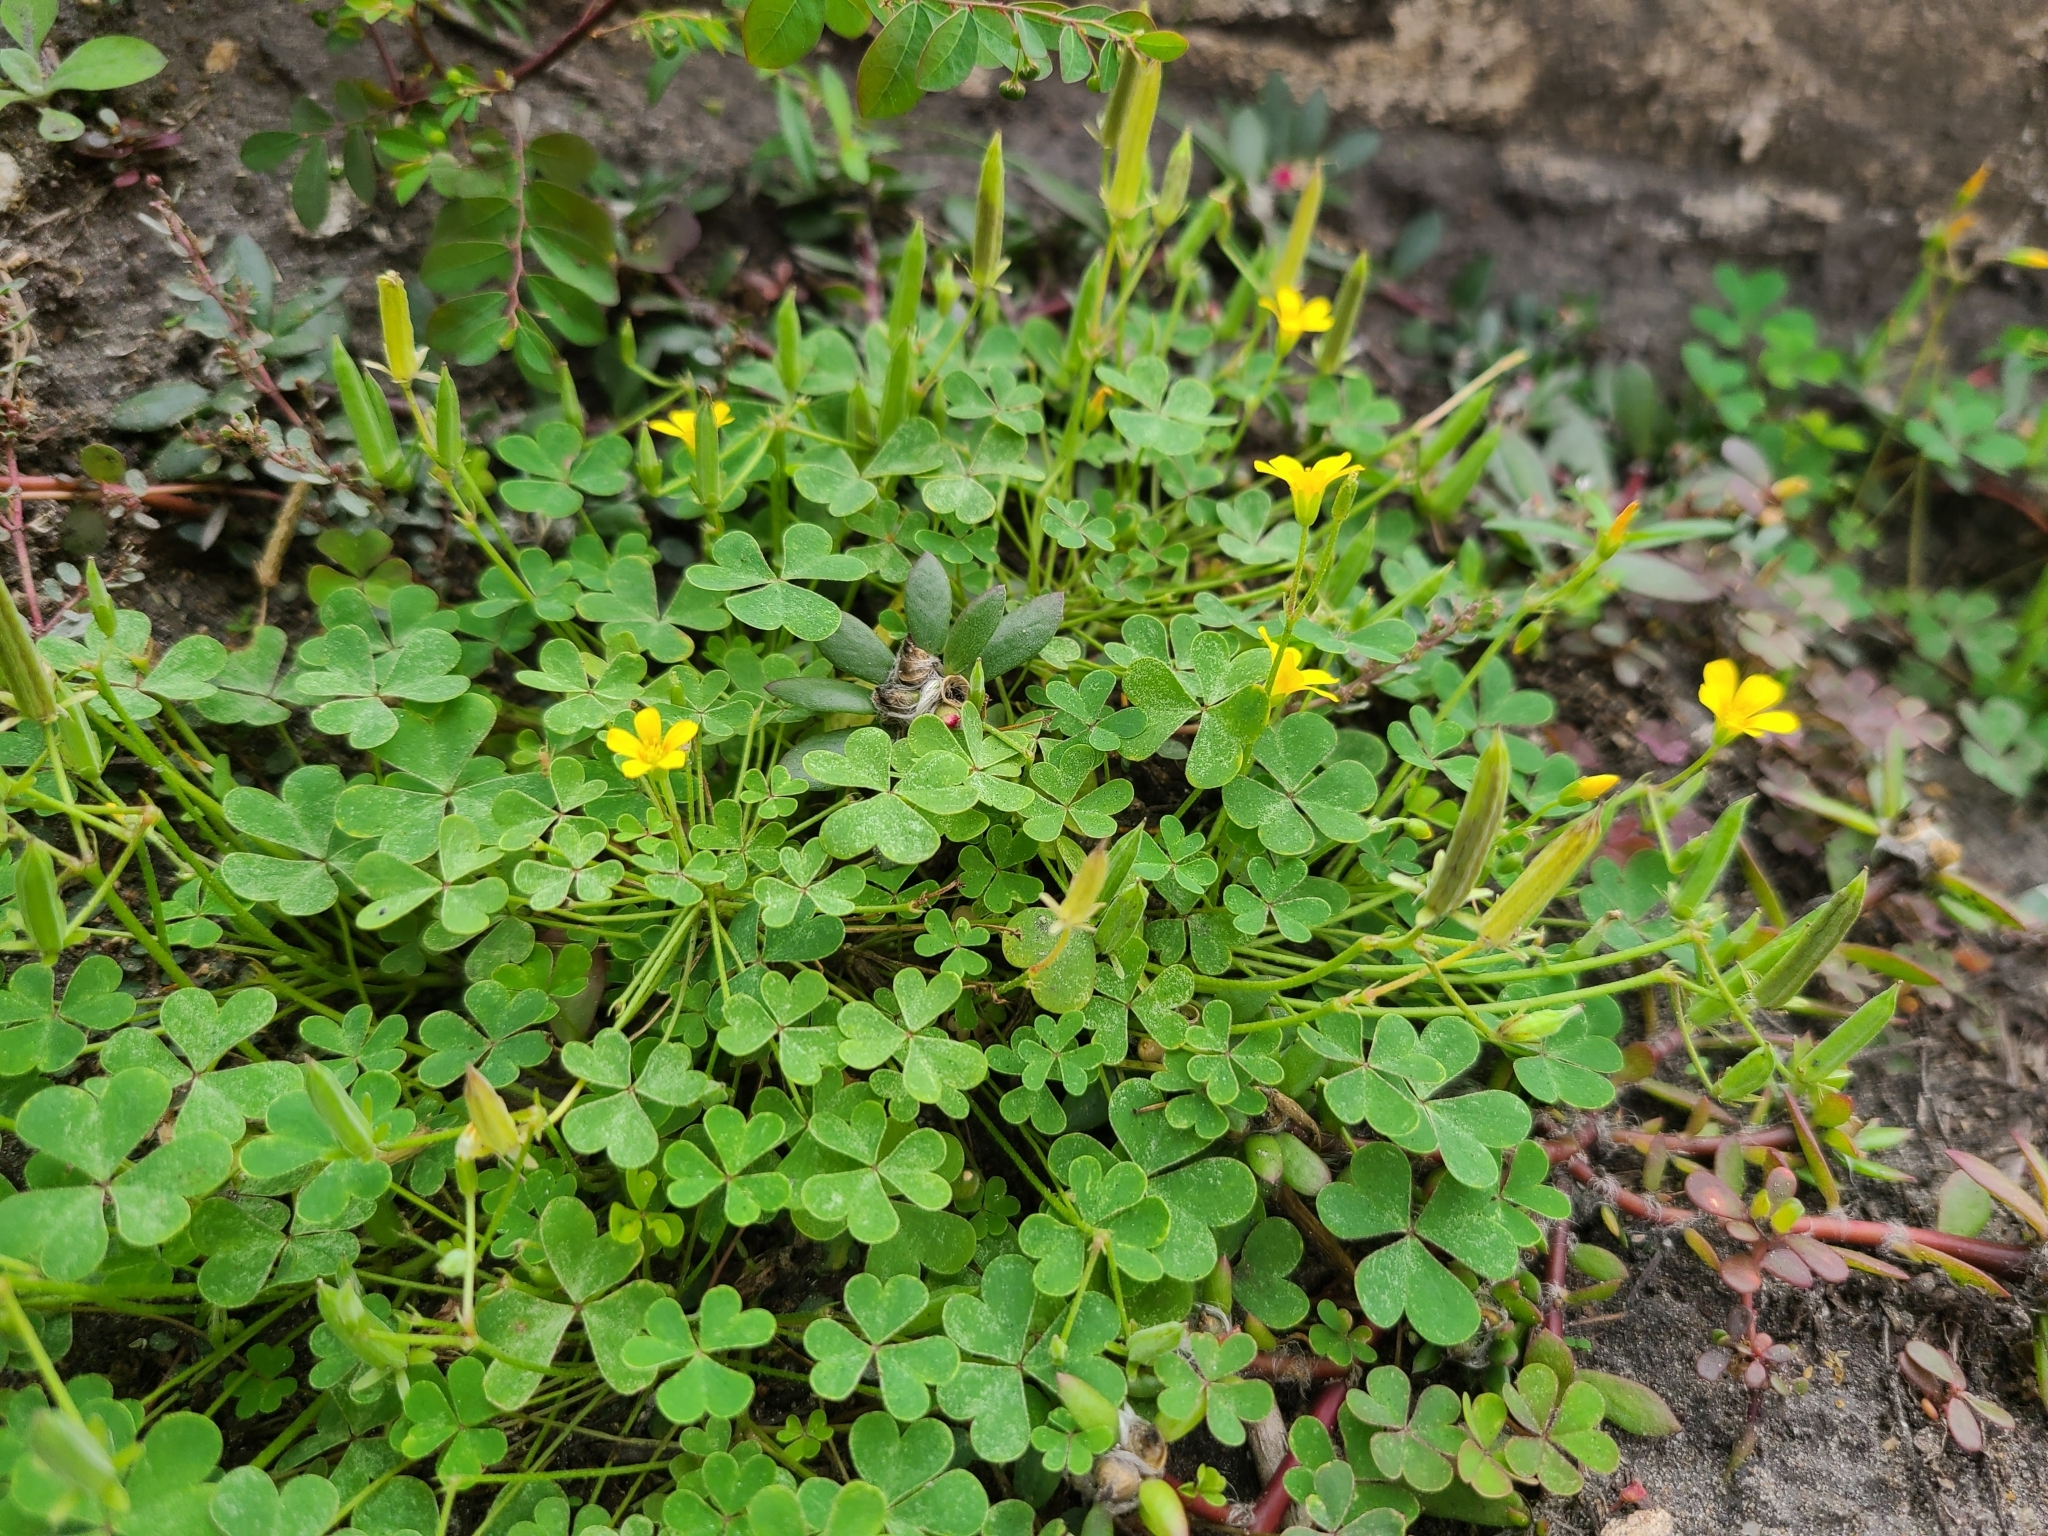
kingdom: Plantae
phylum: Tracheophyta
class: Magnoliopsida
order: Oxalidales
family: Oxalidaceae
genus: Oxalis
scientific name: Oxalis corniculata
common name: Procumbent yellow-sorrel
